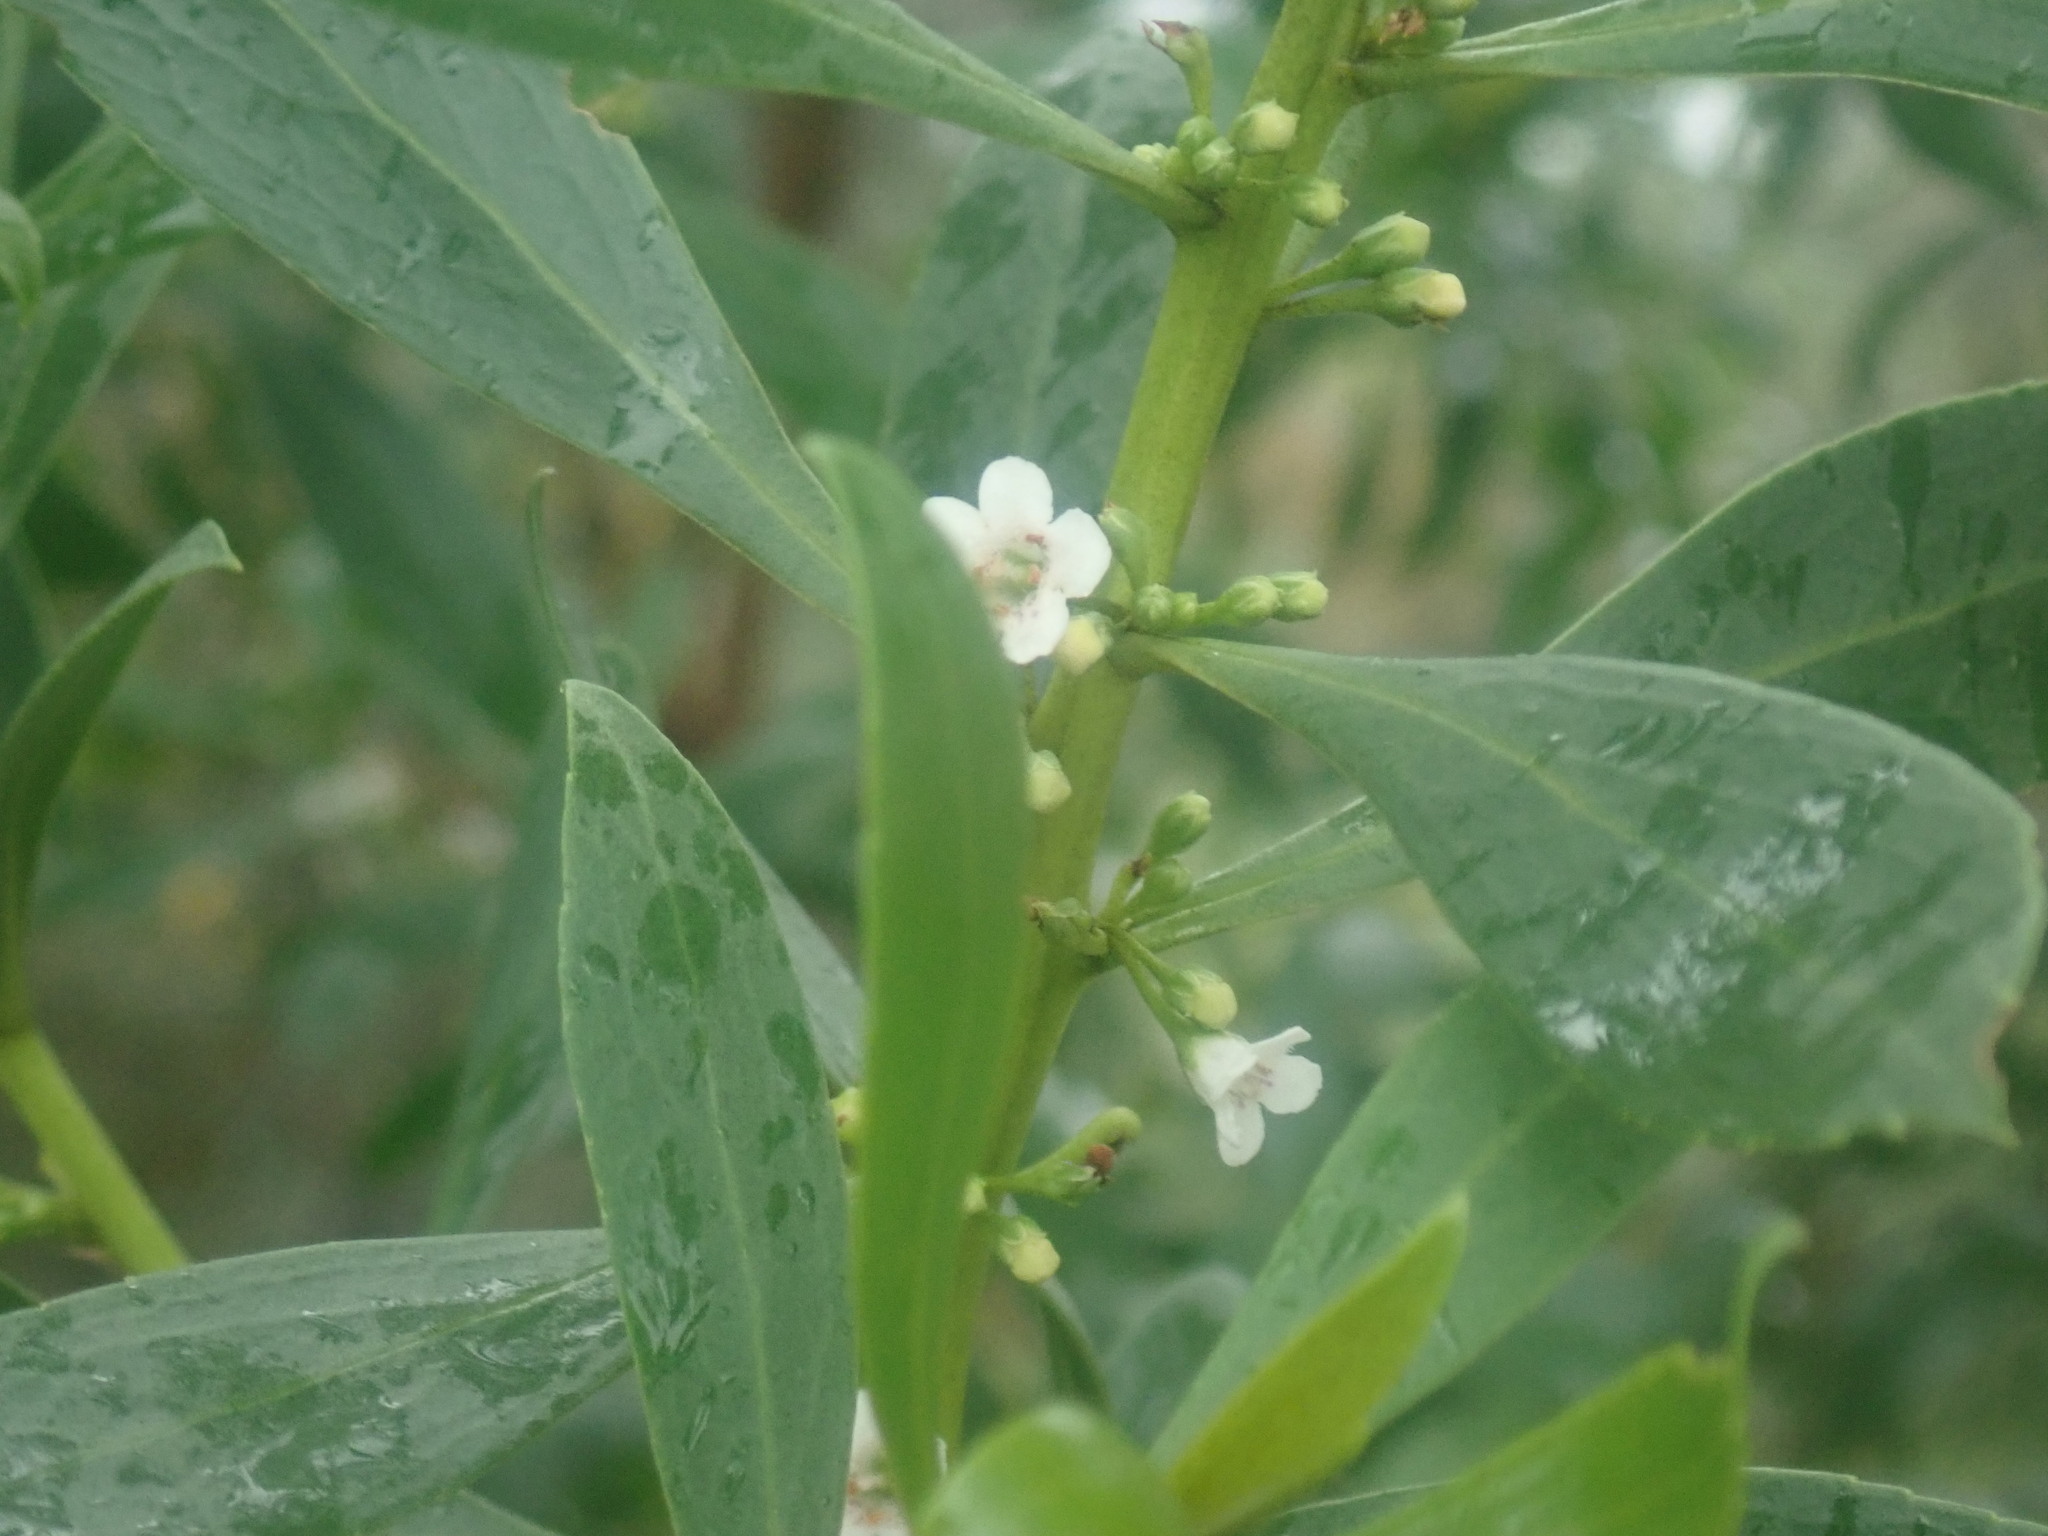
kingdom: Plantae
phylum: Tracheophyta
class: Magnoliopsida
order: Lamiales
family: Scrophulariaceae
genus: Myoporum
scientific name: Myoporum insulare
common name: Common boobialla
